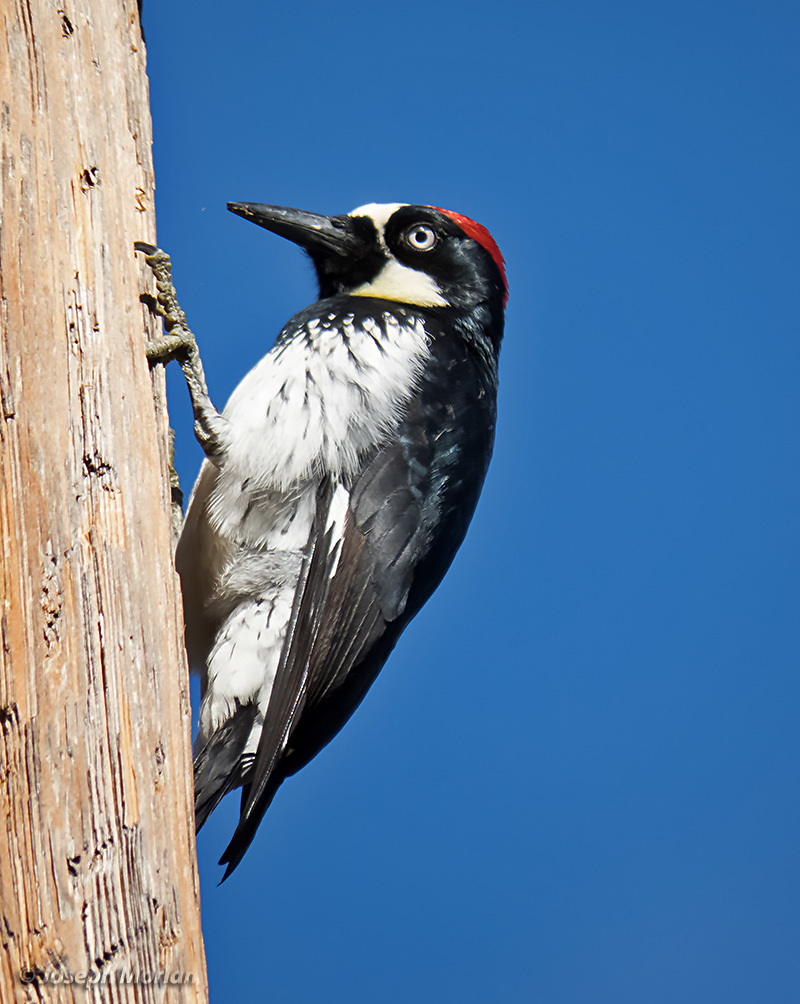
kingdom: Animalia
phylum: Chordata
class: Aves
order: Piciformes
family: Picidae
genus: Melanerpes
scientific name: Melanerpes formicivorus
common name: Acorn woodpecker
